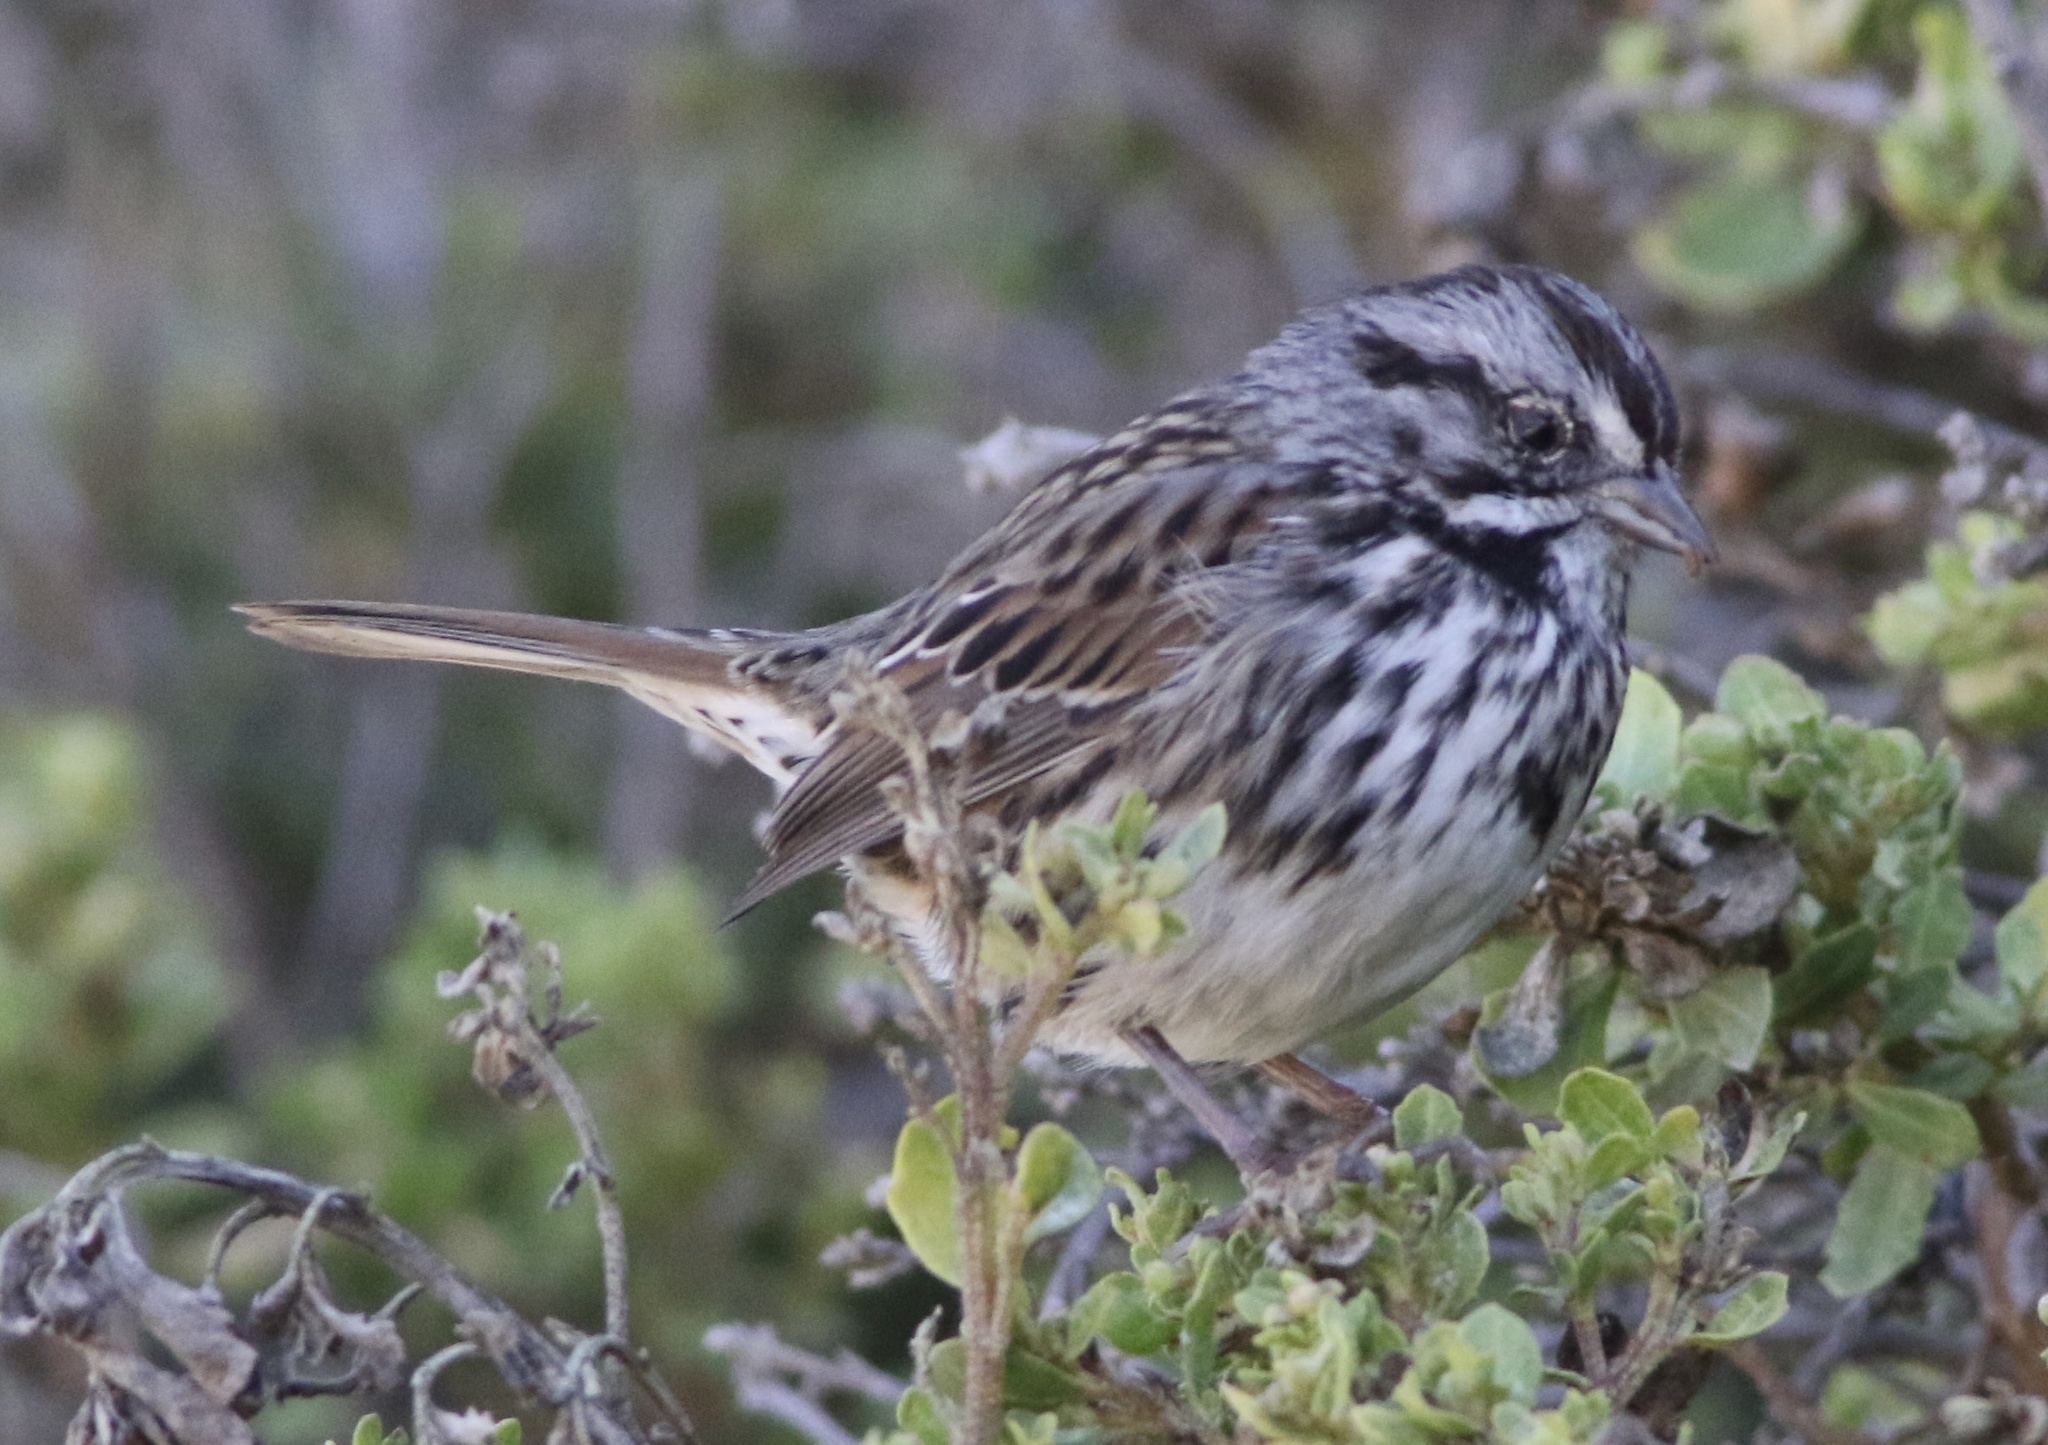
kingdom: Animalia
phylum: Chordata
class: Aves
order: Passeriformes
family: Passerellidae
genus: Melospiza
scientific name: Melospiza melodia
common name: Song sparrow
